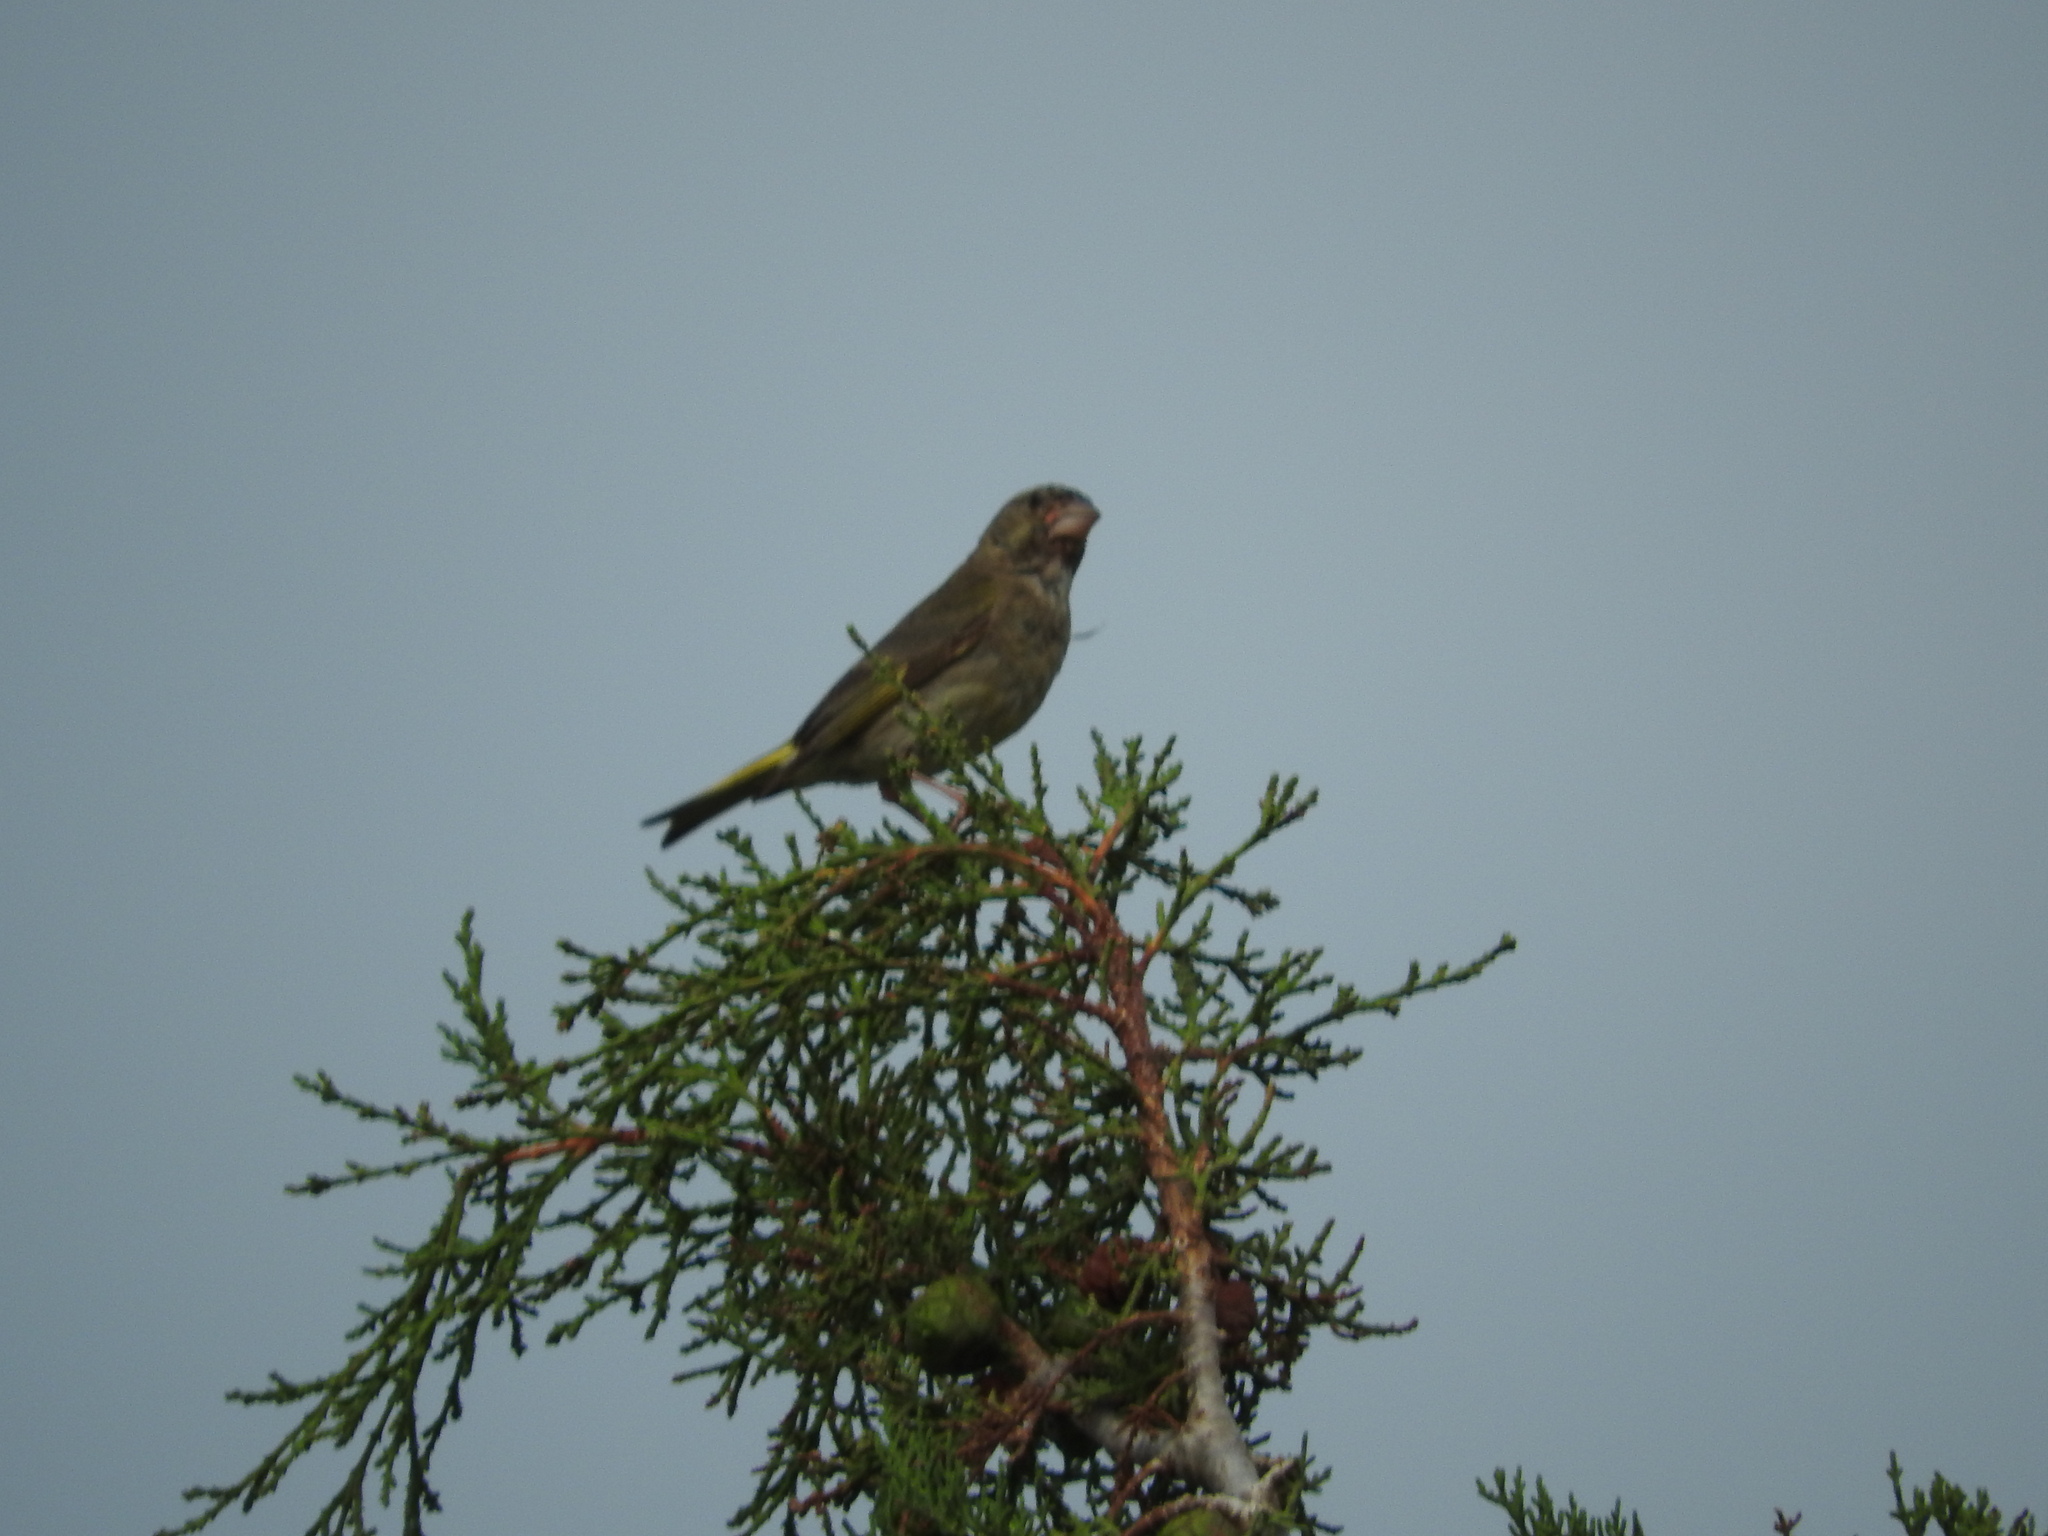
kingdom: Plantae
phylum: Tracheophyta
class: Liliopsida
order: Poales
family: Poaceae
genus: Chloris
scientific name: Chloris chloris
